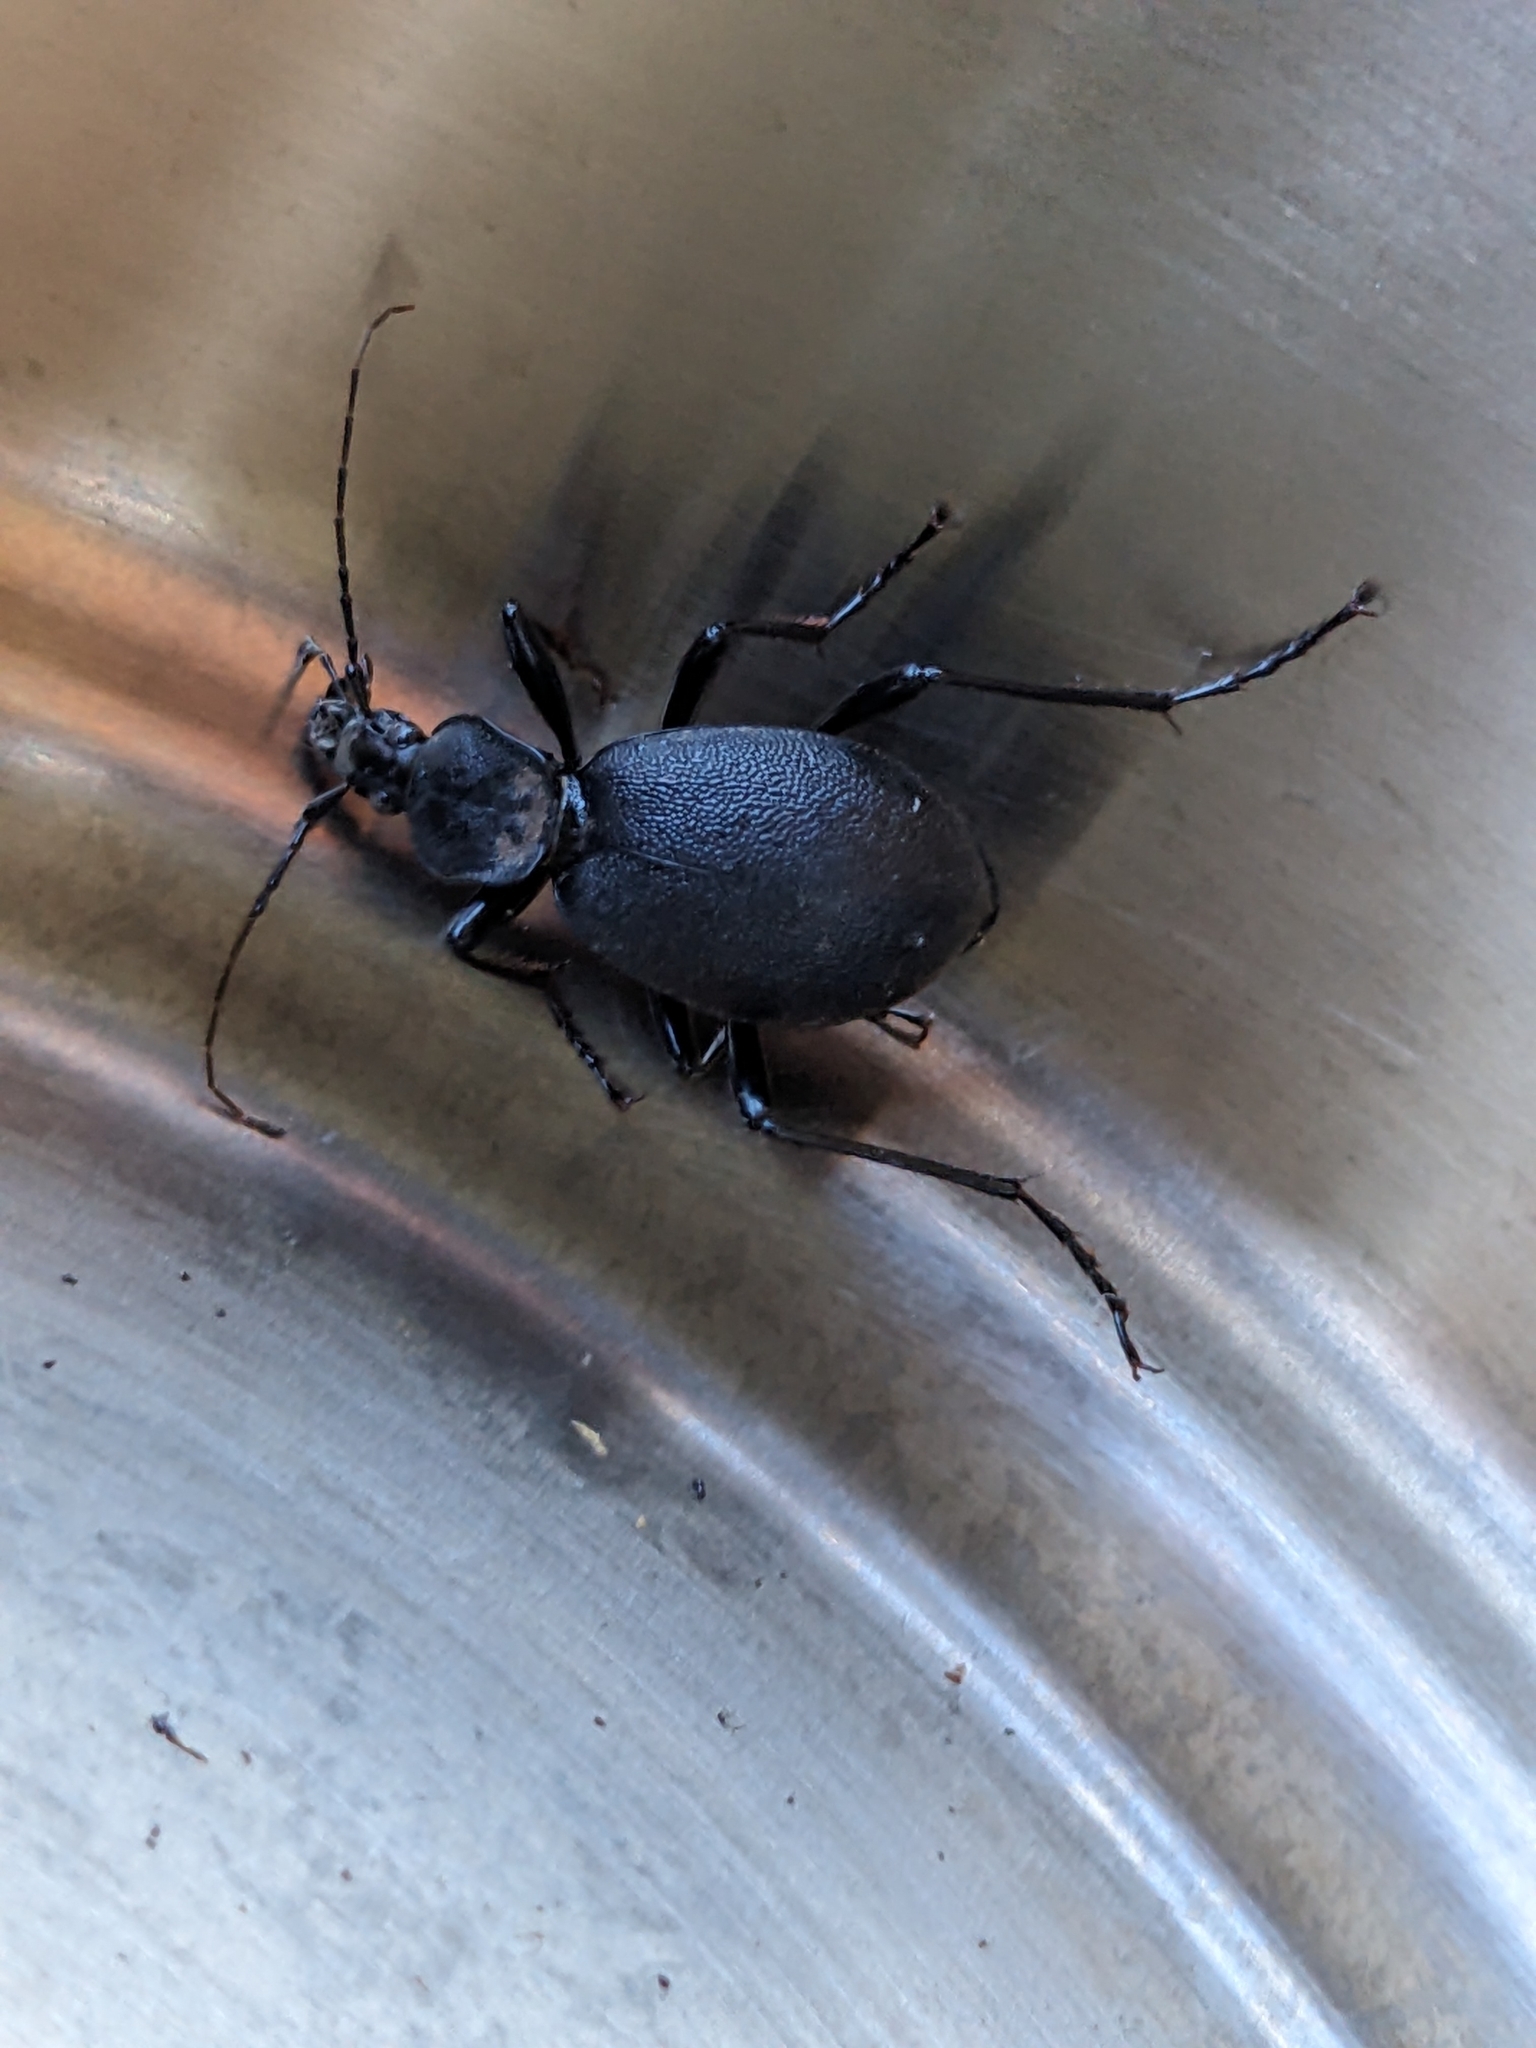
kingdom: Animalia
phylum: Arthropoda
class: Insecta
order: Coleoptera
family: Carabidae
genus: Cychrus
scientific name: Cychrus caraboides
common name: Snail hunter
